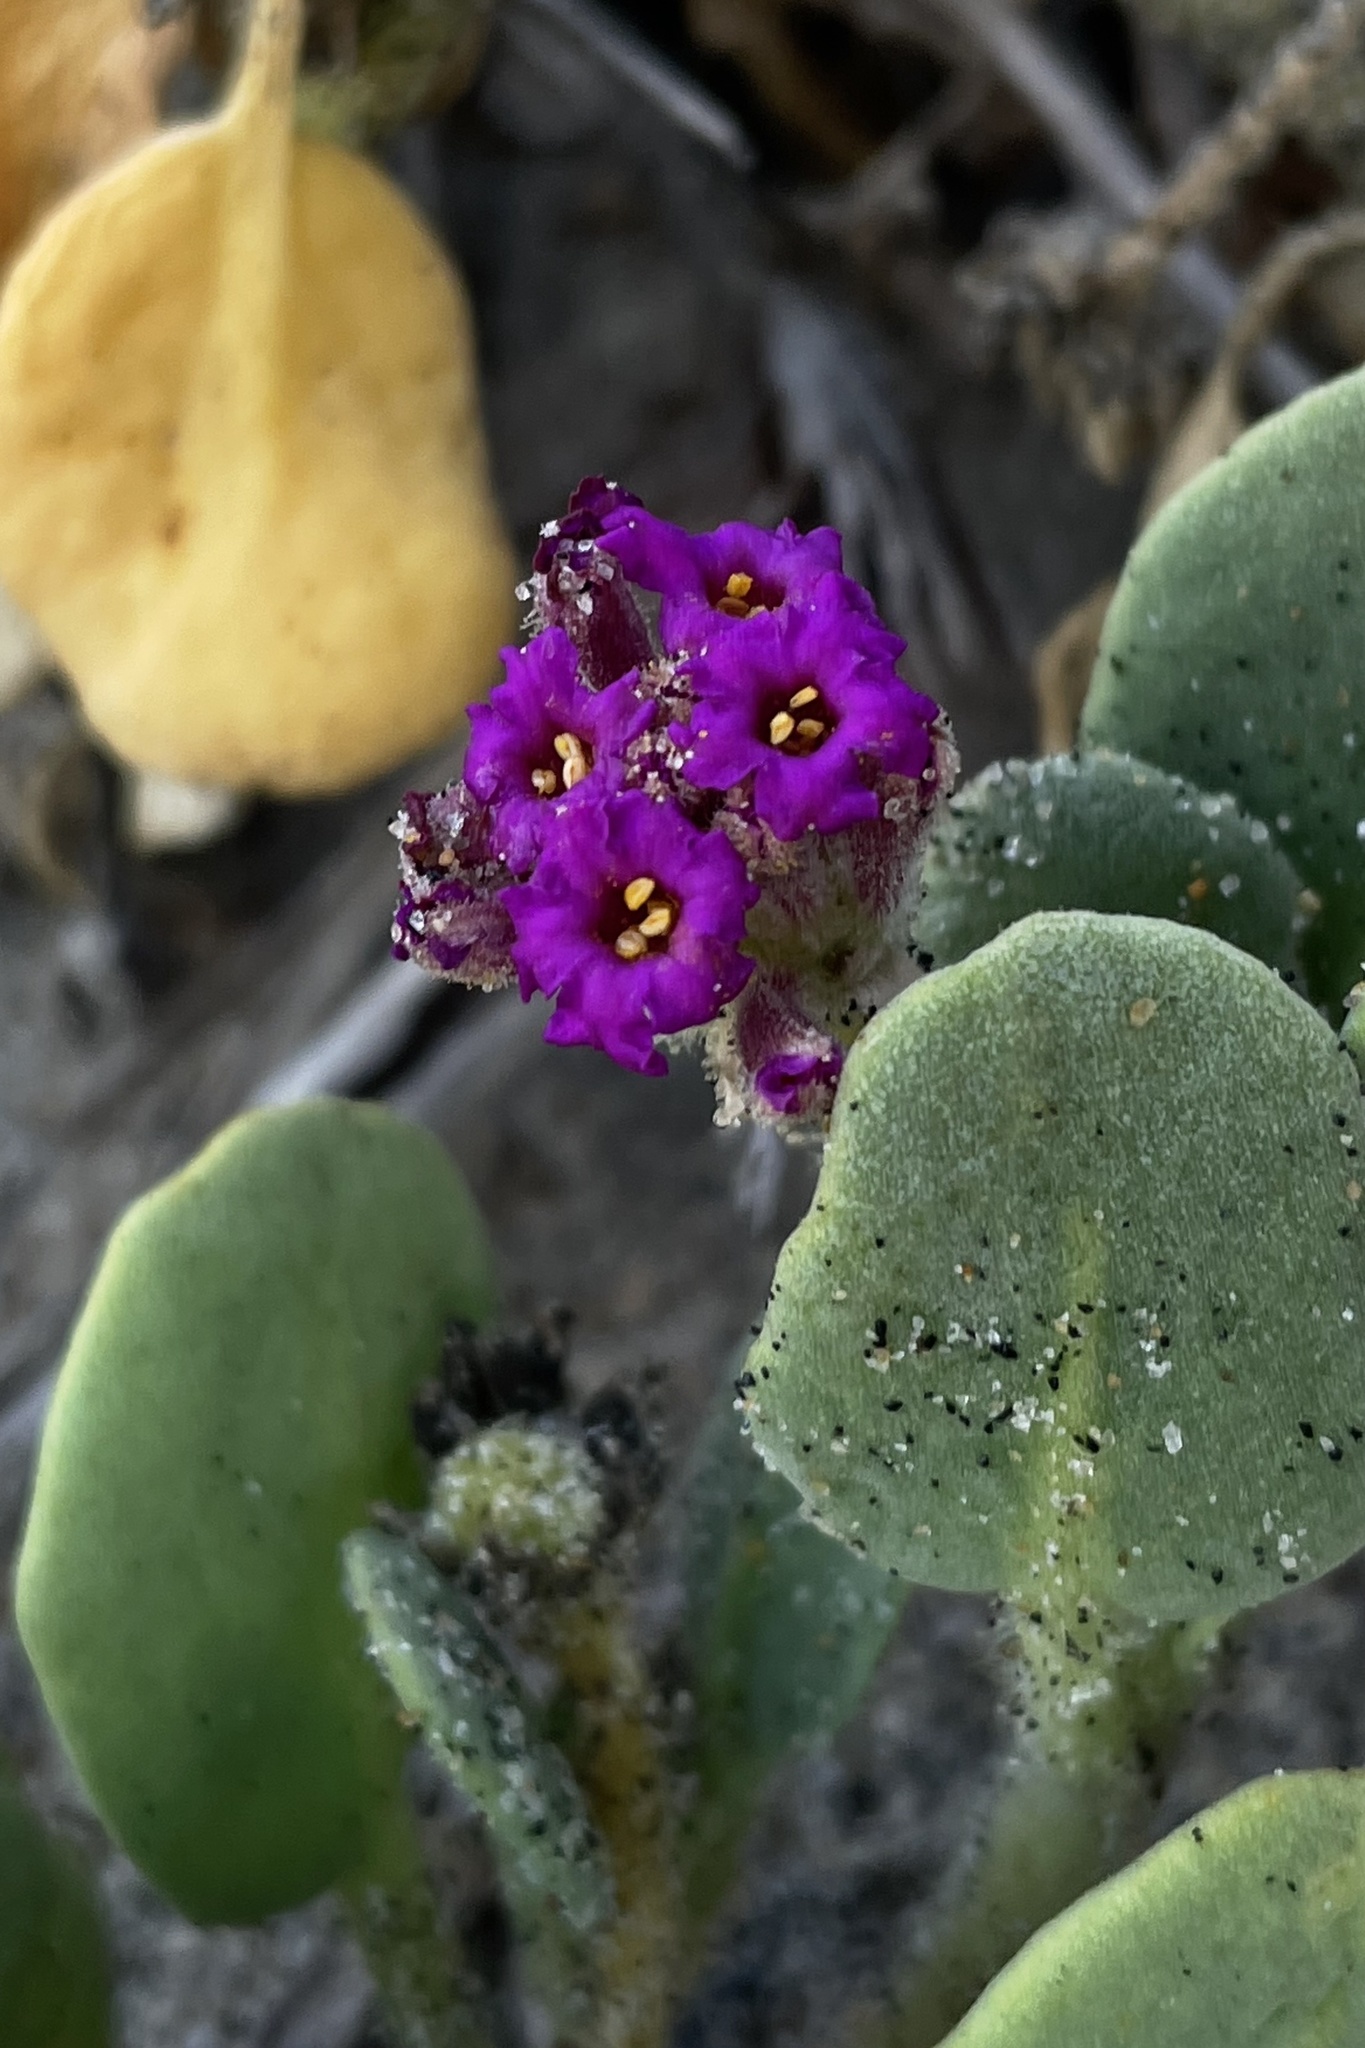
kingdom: Plantae
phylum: Tracheophyta
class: Magnoliopsida
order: Caryophyllales
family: Nyctaginaceae
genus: Abronia
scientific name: Abronia maritima
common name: Red sand-verbena
